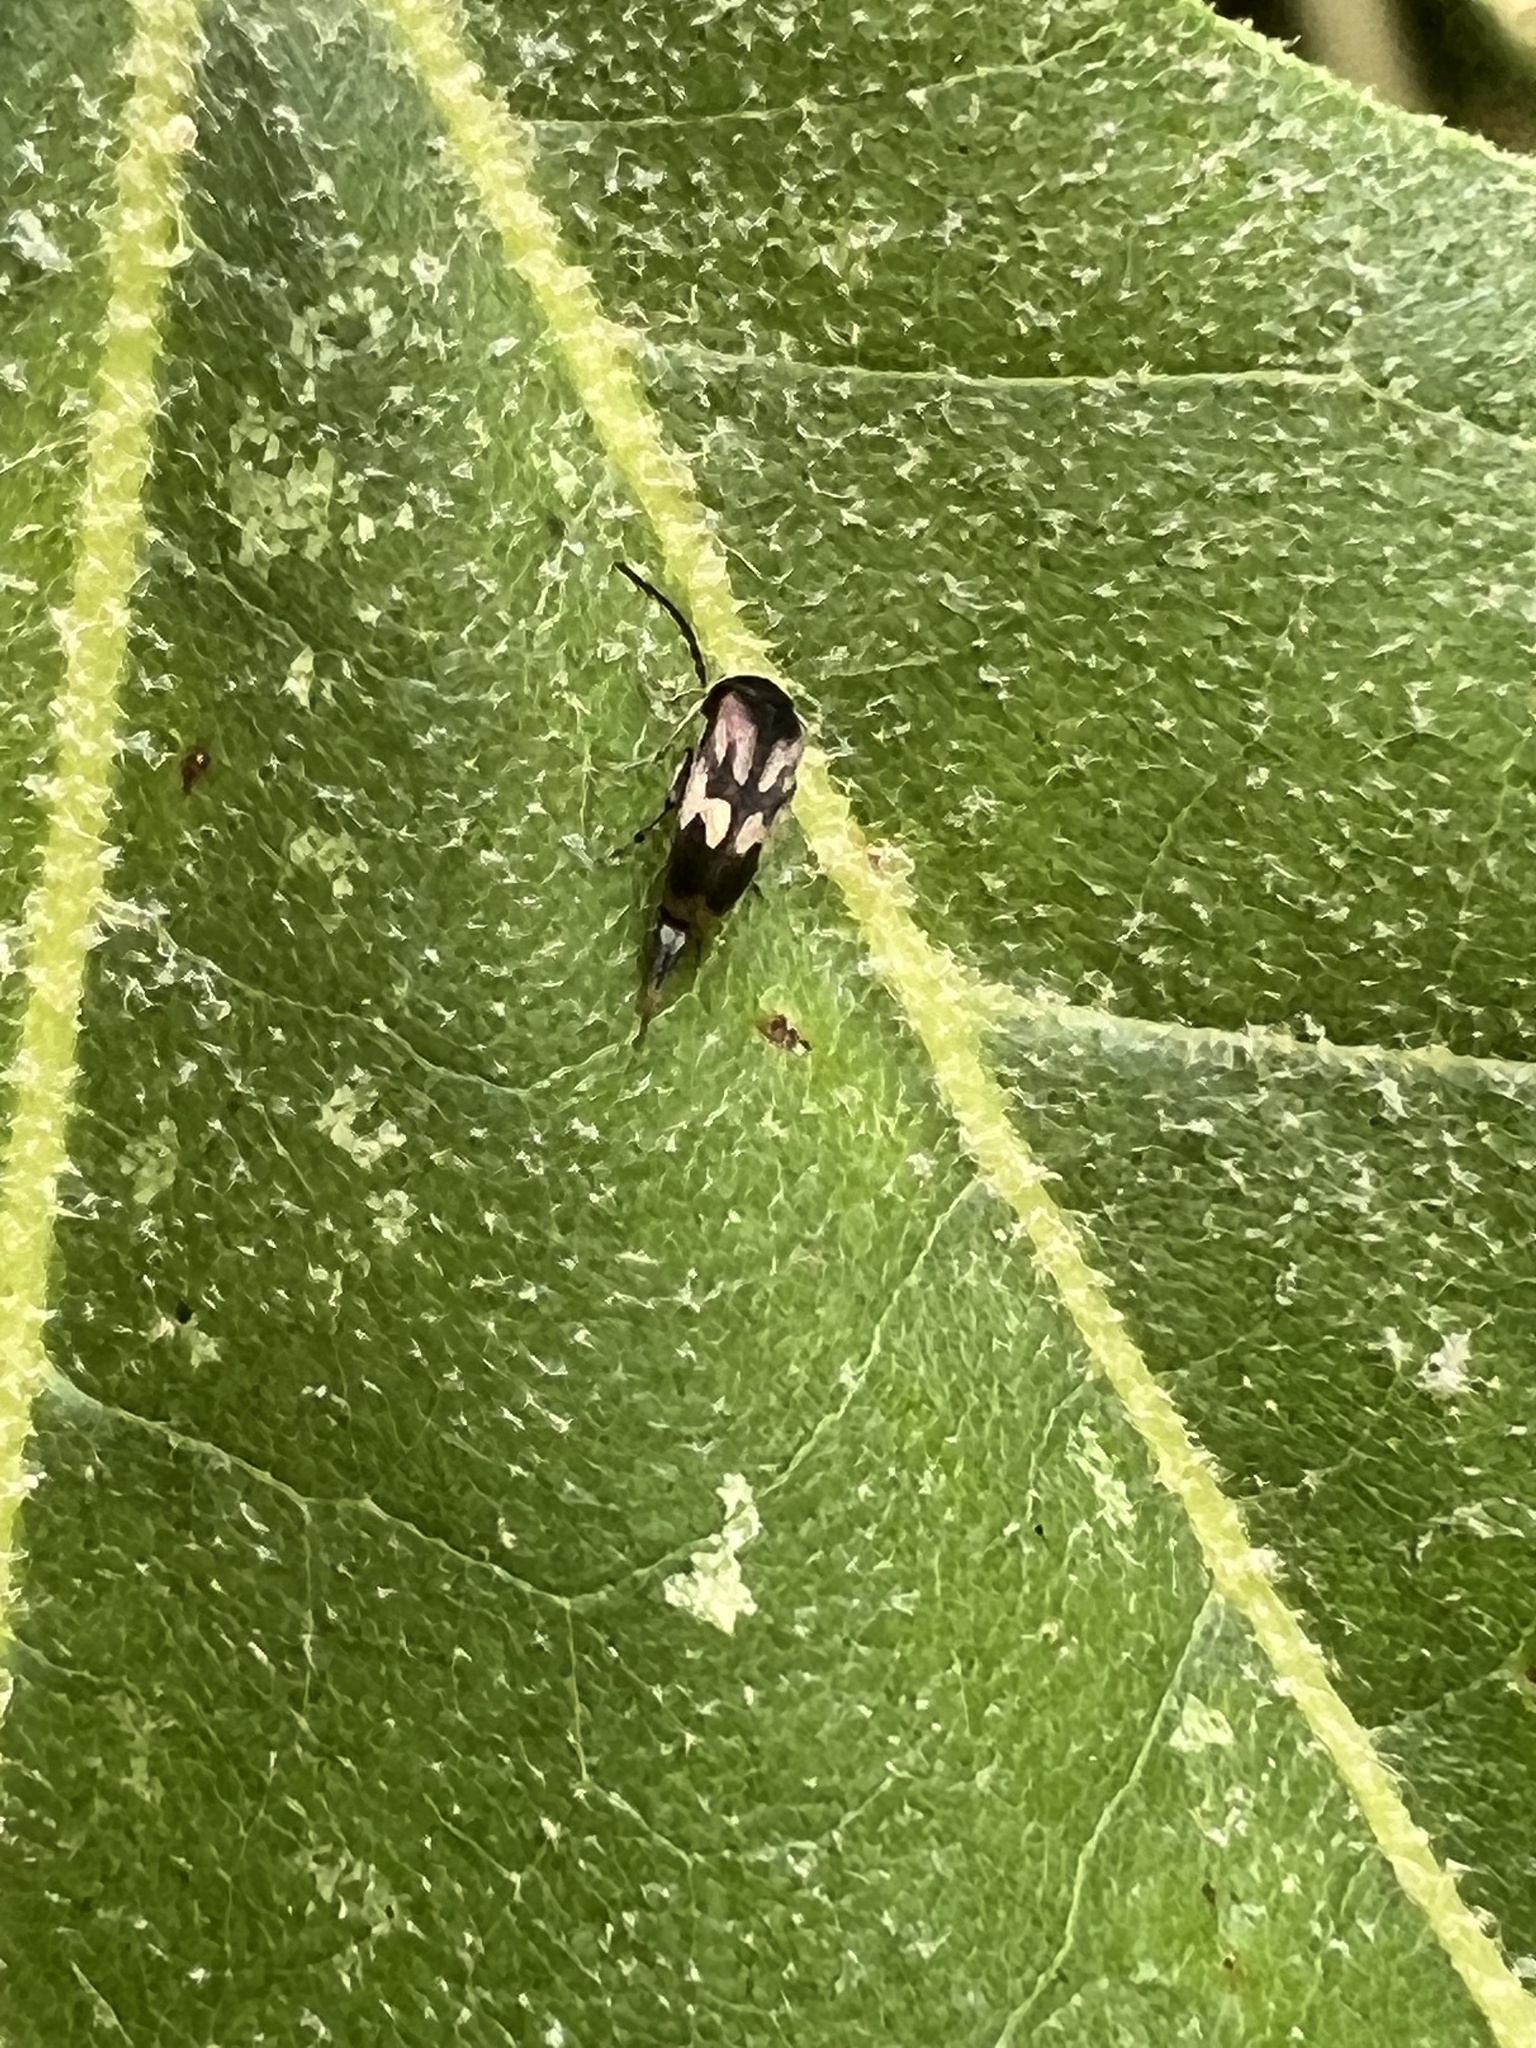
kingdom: Animalia
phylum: Arthropoda
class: Insecta
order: Coleoptera
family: Mordellidae
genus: Falsomordellistena
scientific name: Falsomordellistena bihamata
